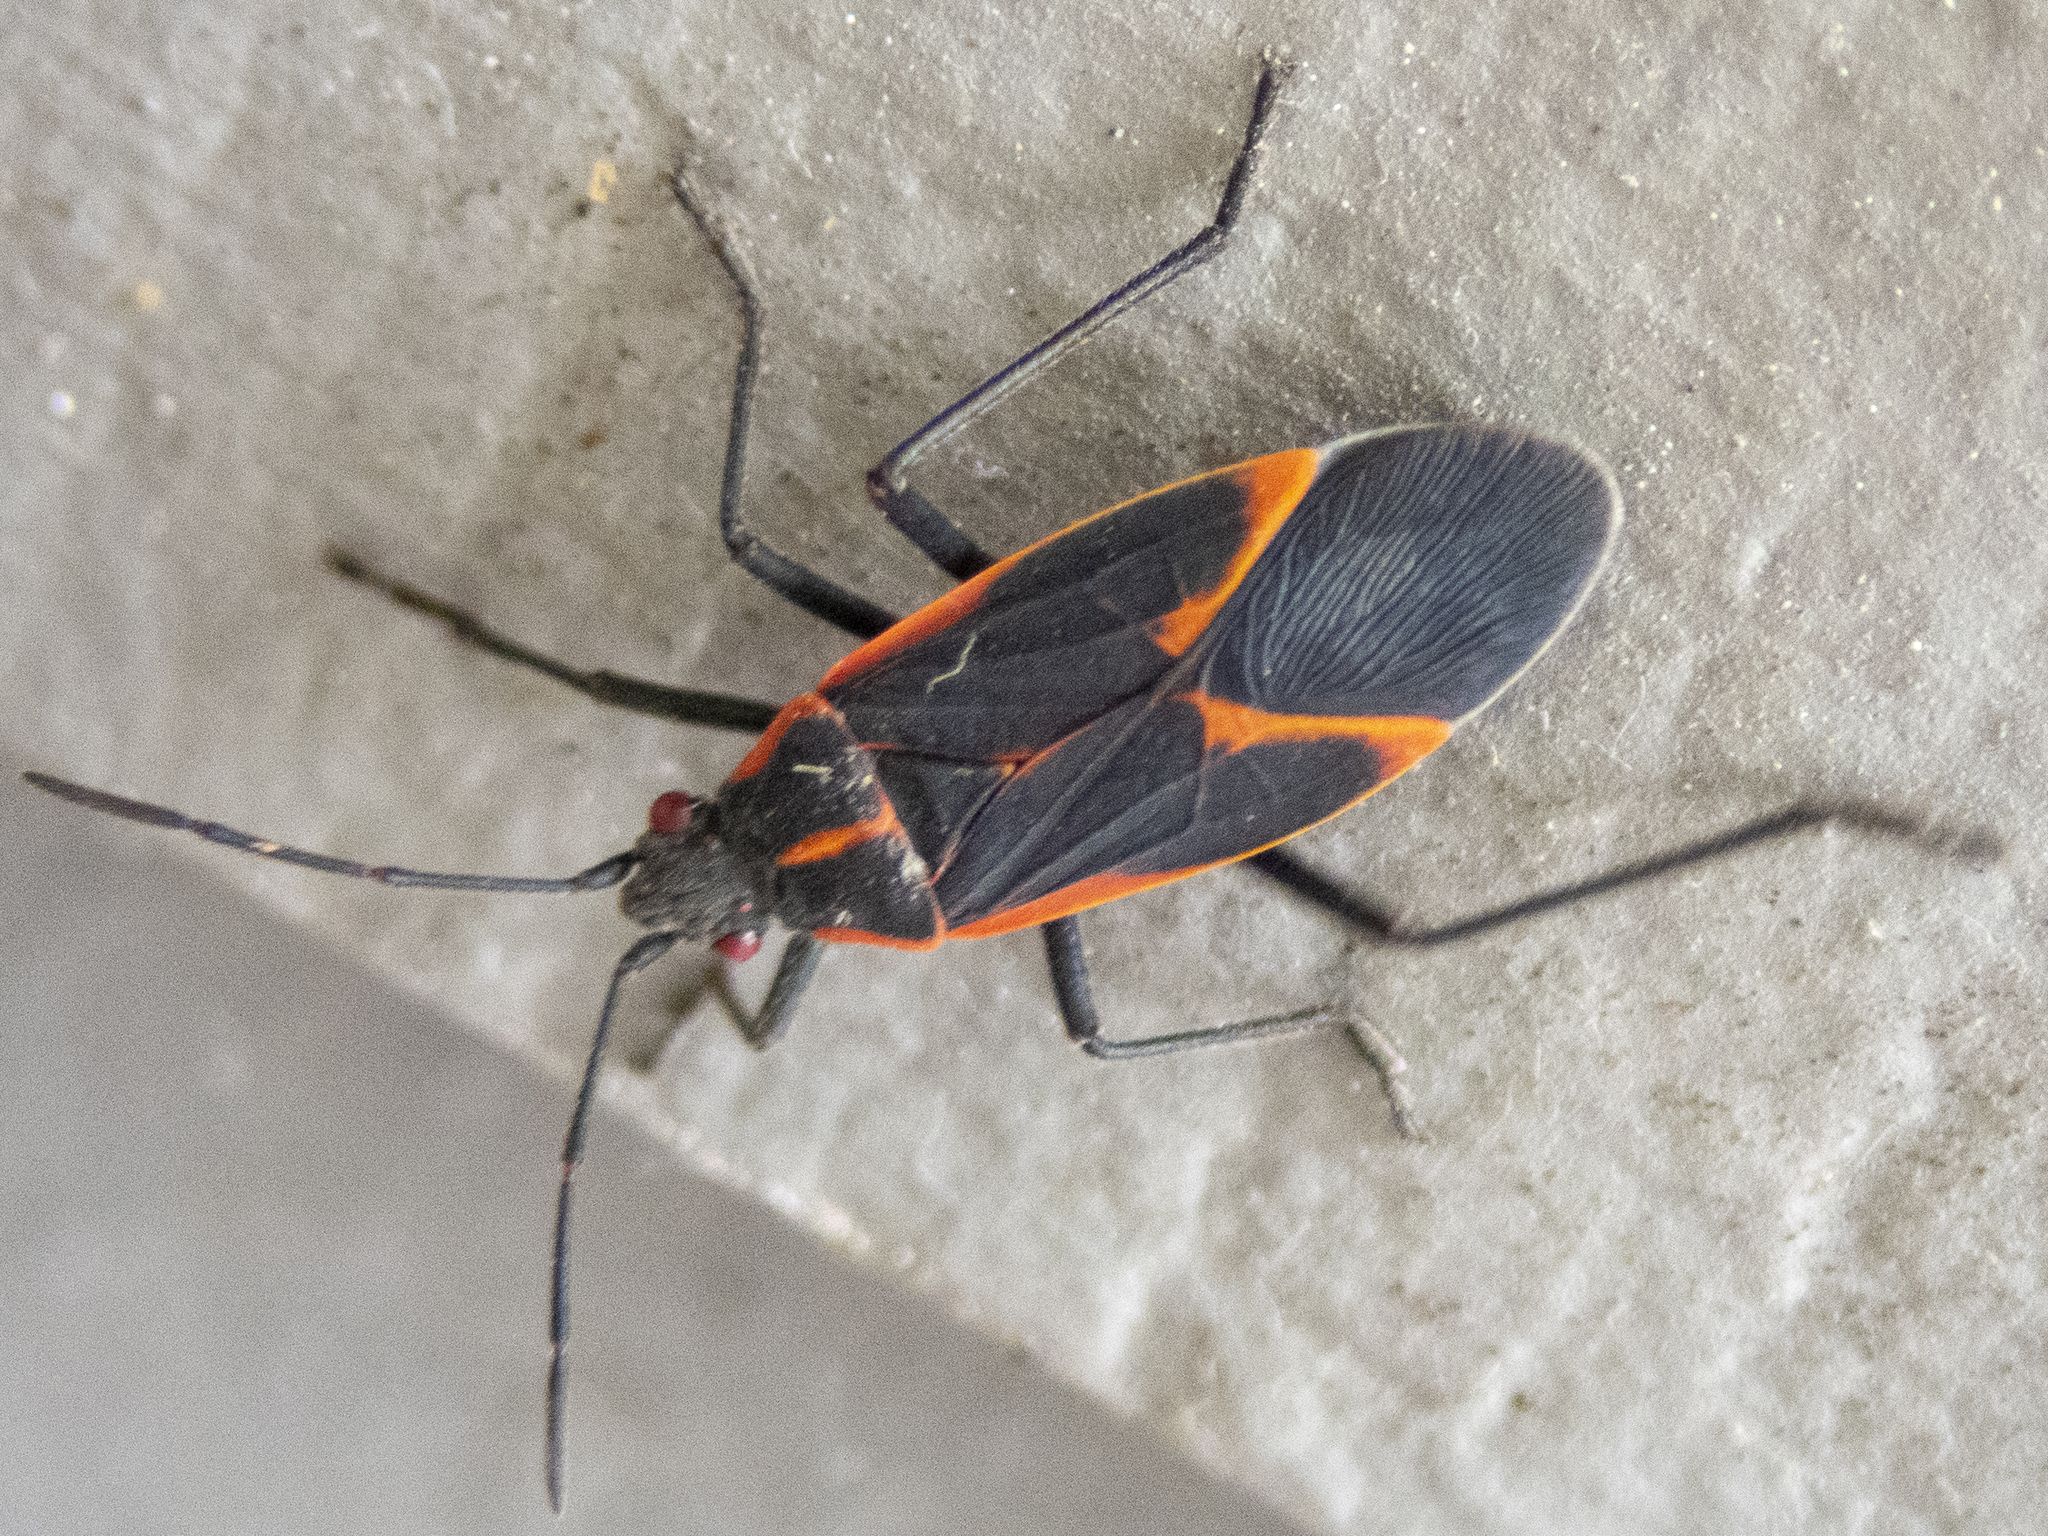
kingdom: Animalia
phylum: Arthropoda
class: Insecta
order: Hemiptera
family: Rhopalidae
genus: Boisea
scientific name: Boisea trivittata
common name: Boxelder bug
